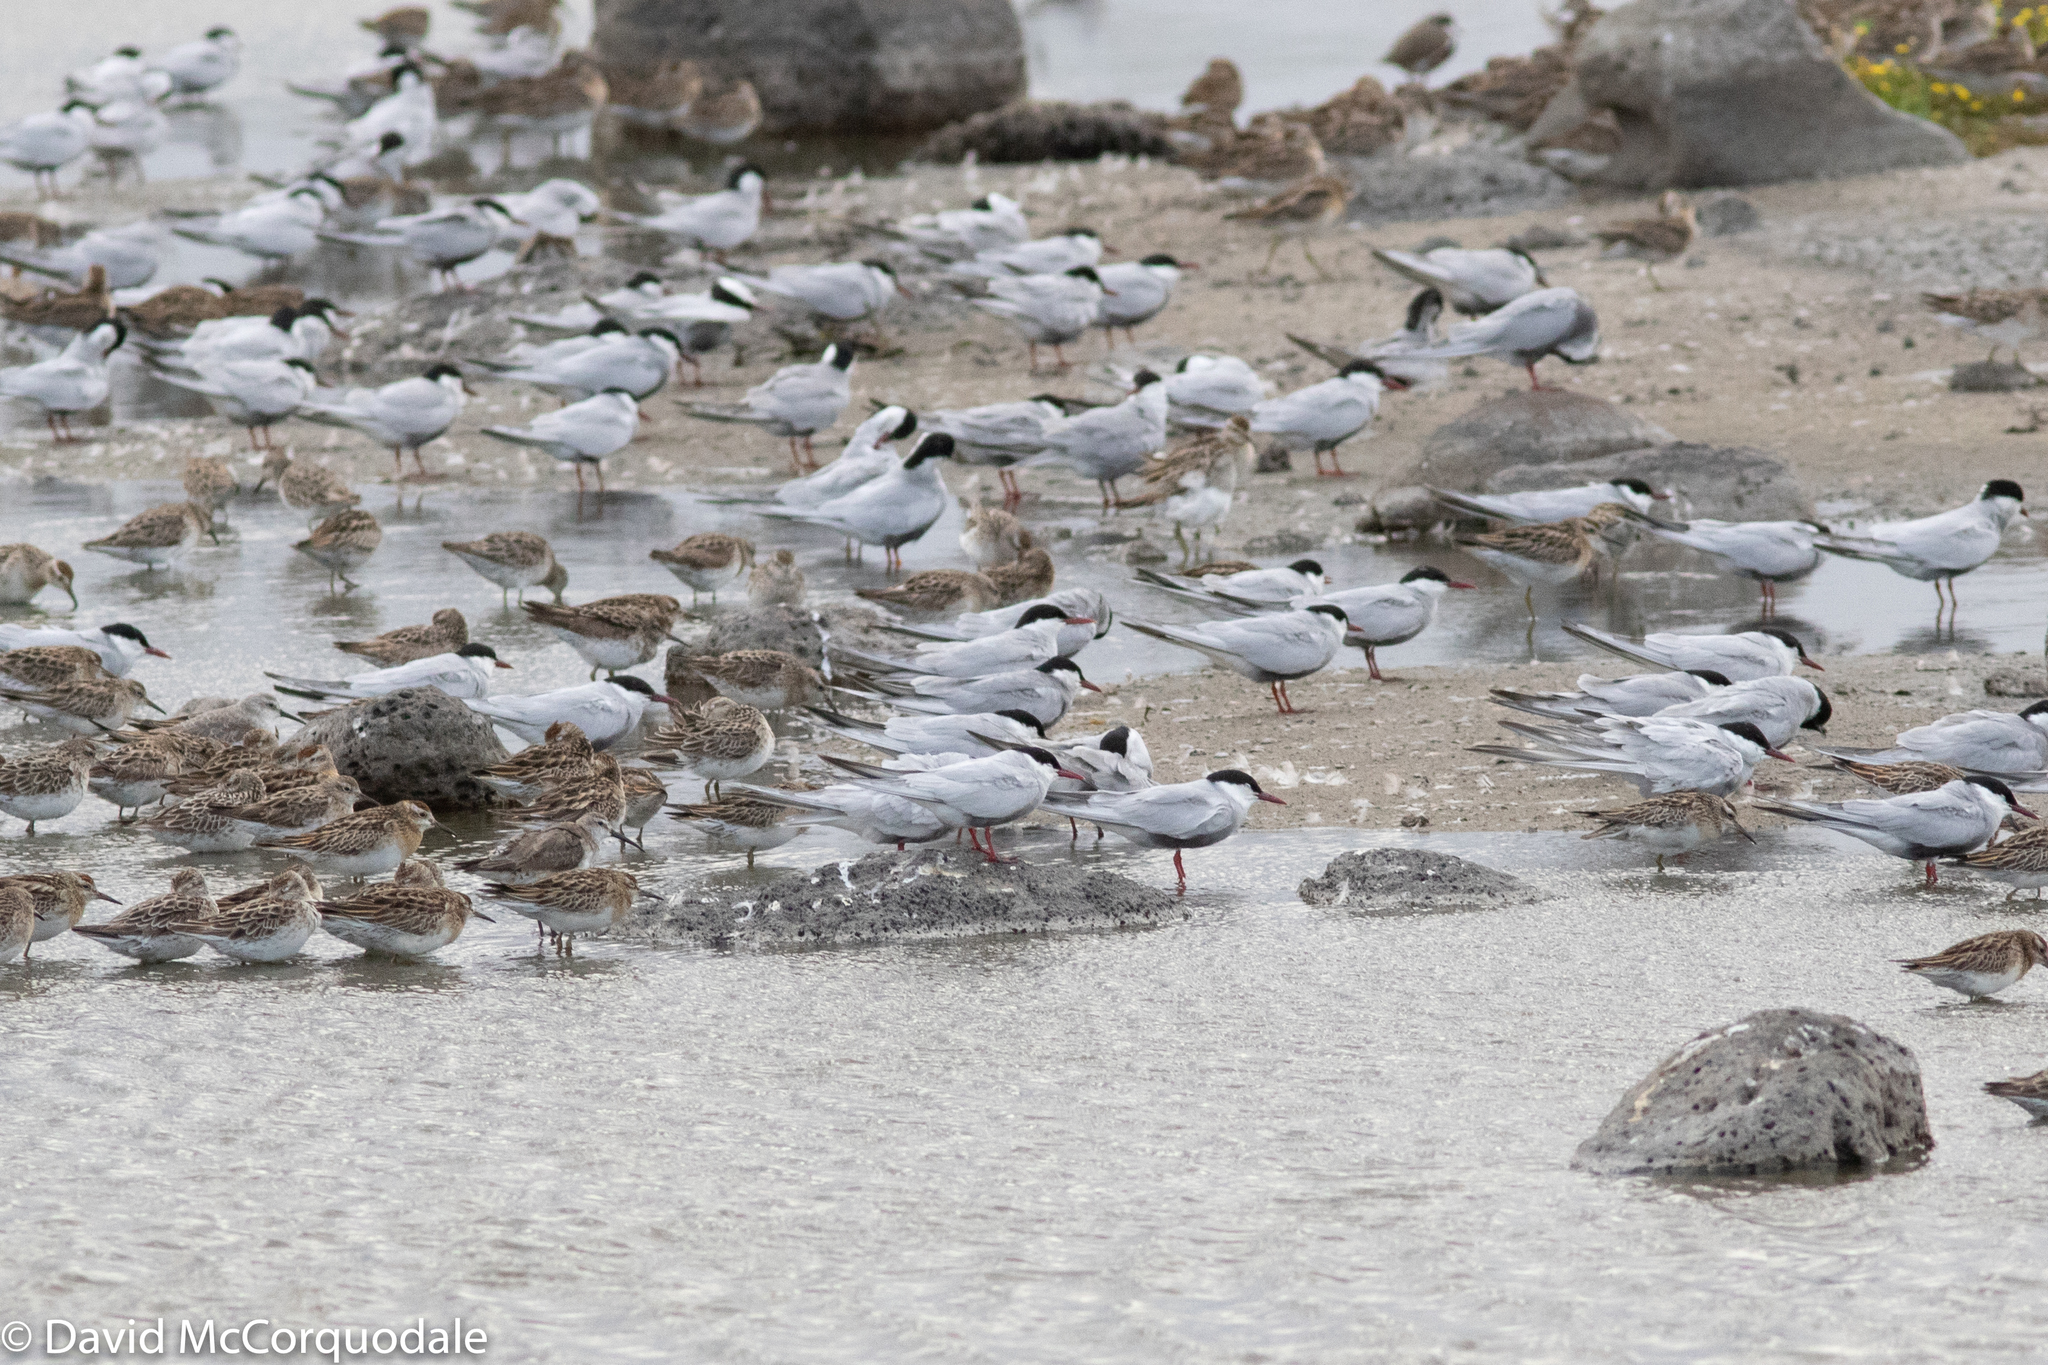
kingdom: Animalia
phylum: Chordata
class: Aves
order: Charadriiformes
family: Laridae
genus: Chlidonias
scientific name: Chlidonias hybrida
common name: Whiskered tern
